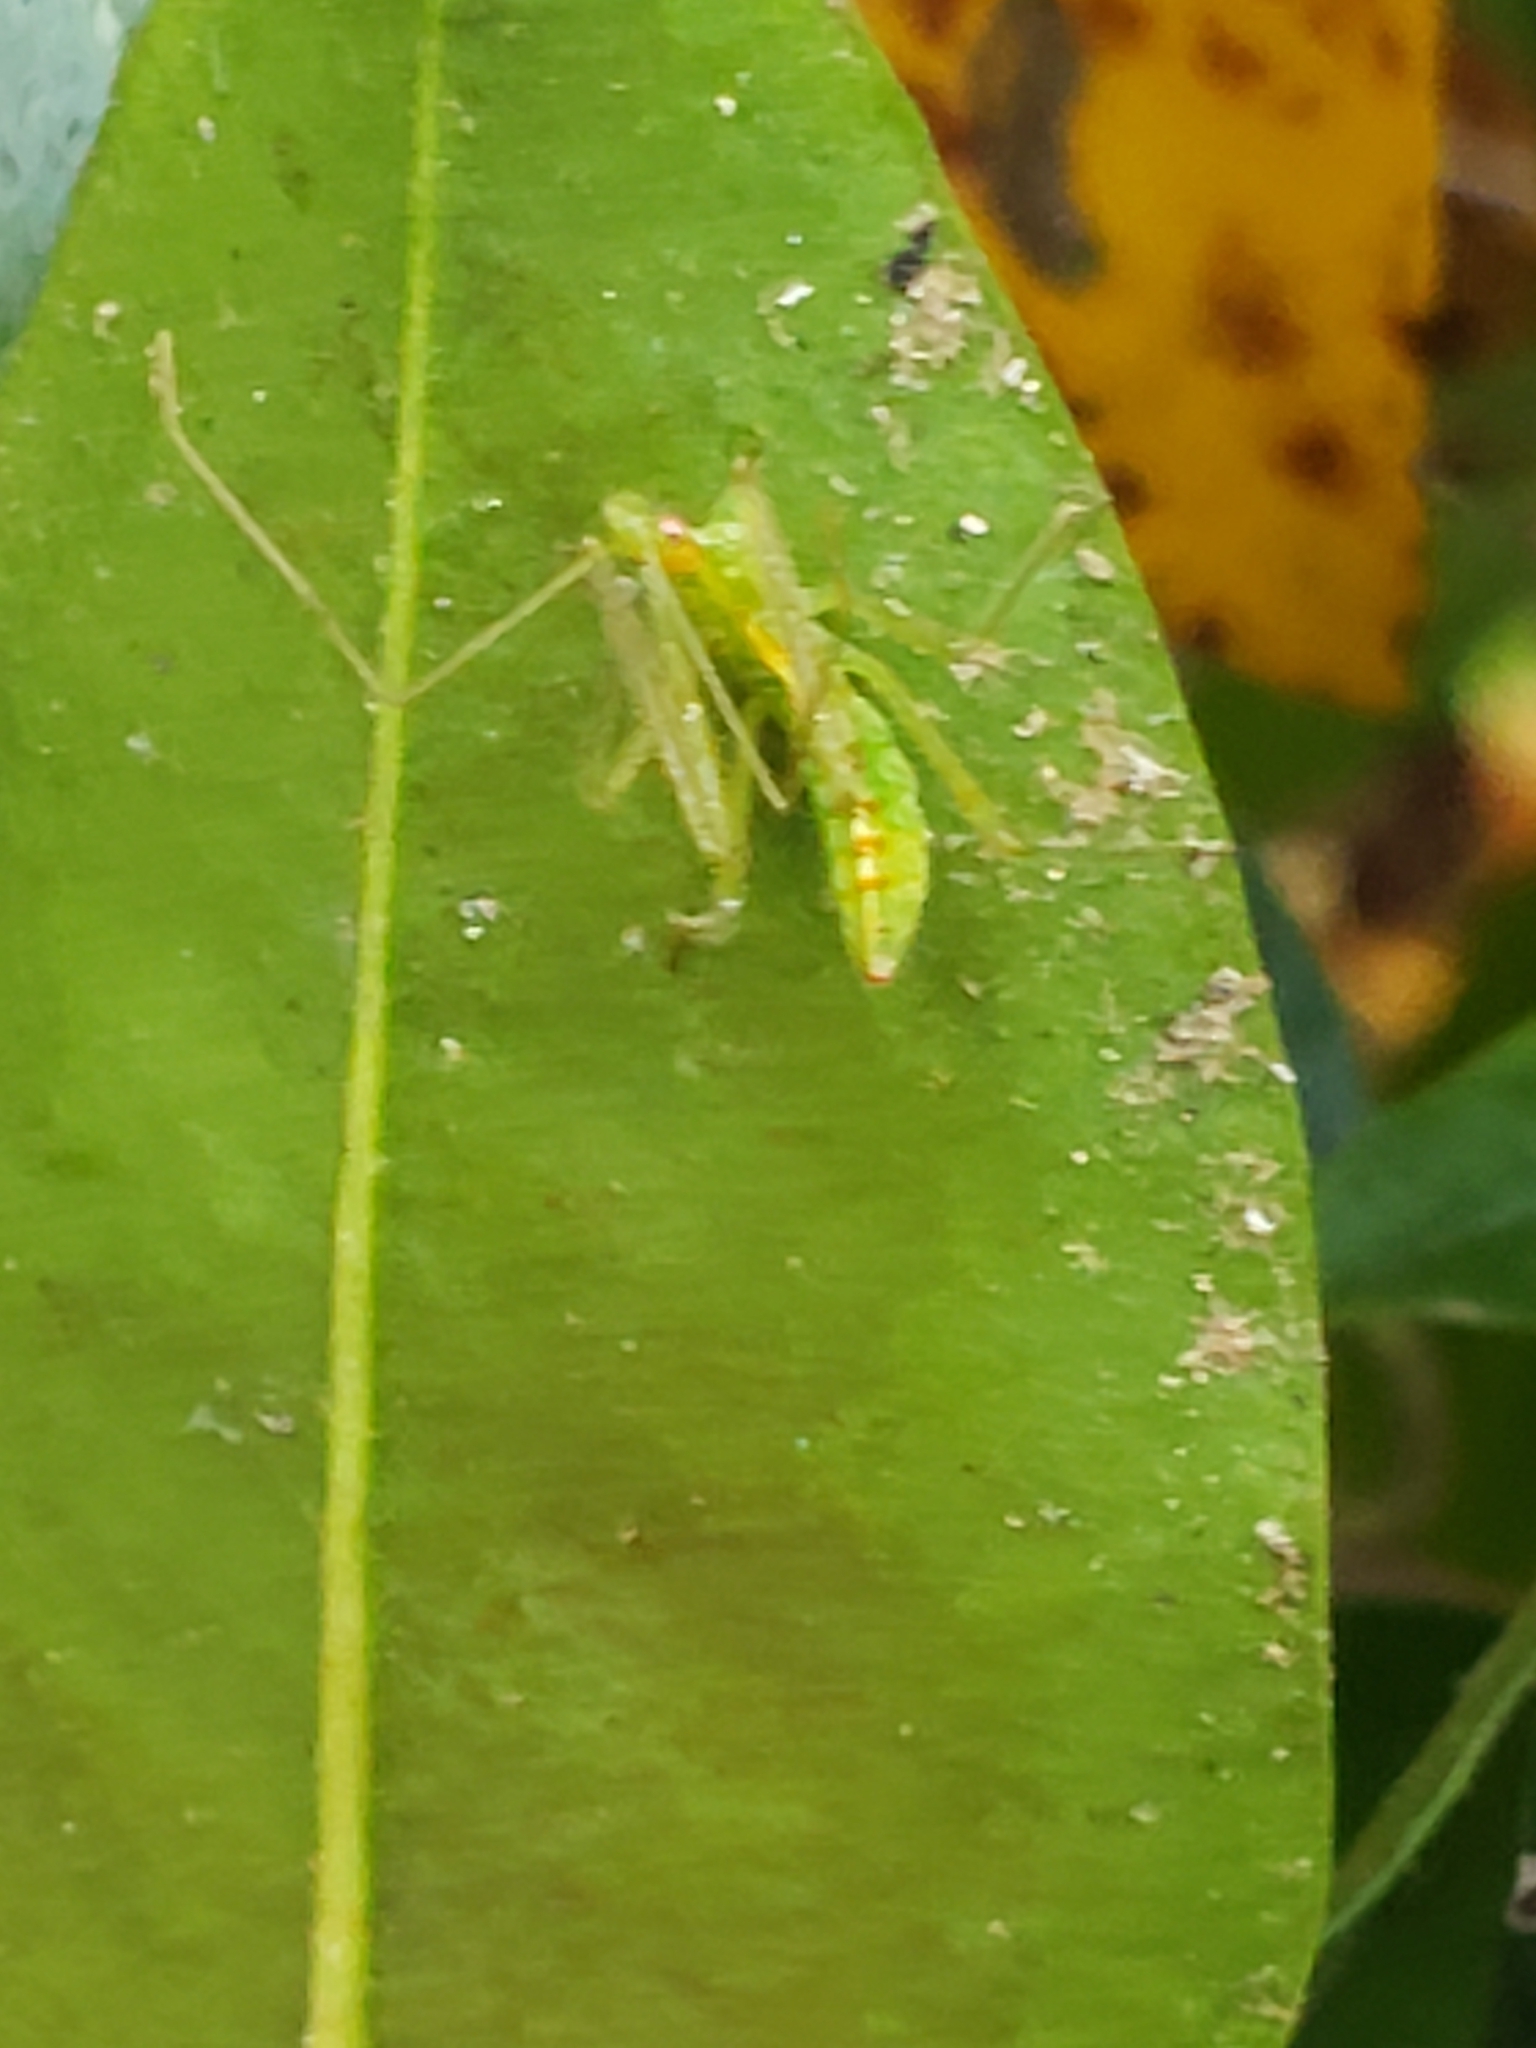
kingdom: Animalia
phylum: Arthropoda
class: Insecta
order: Hemiptera
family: Reduviidae
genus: Zelus
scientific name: Zelus luridus
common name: Pale green assassin bug
